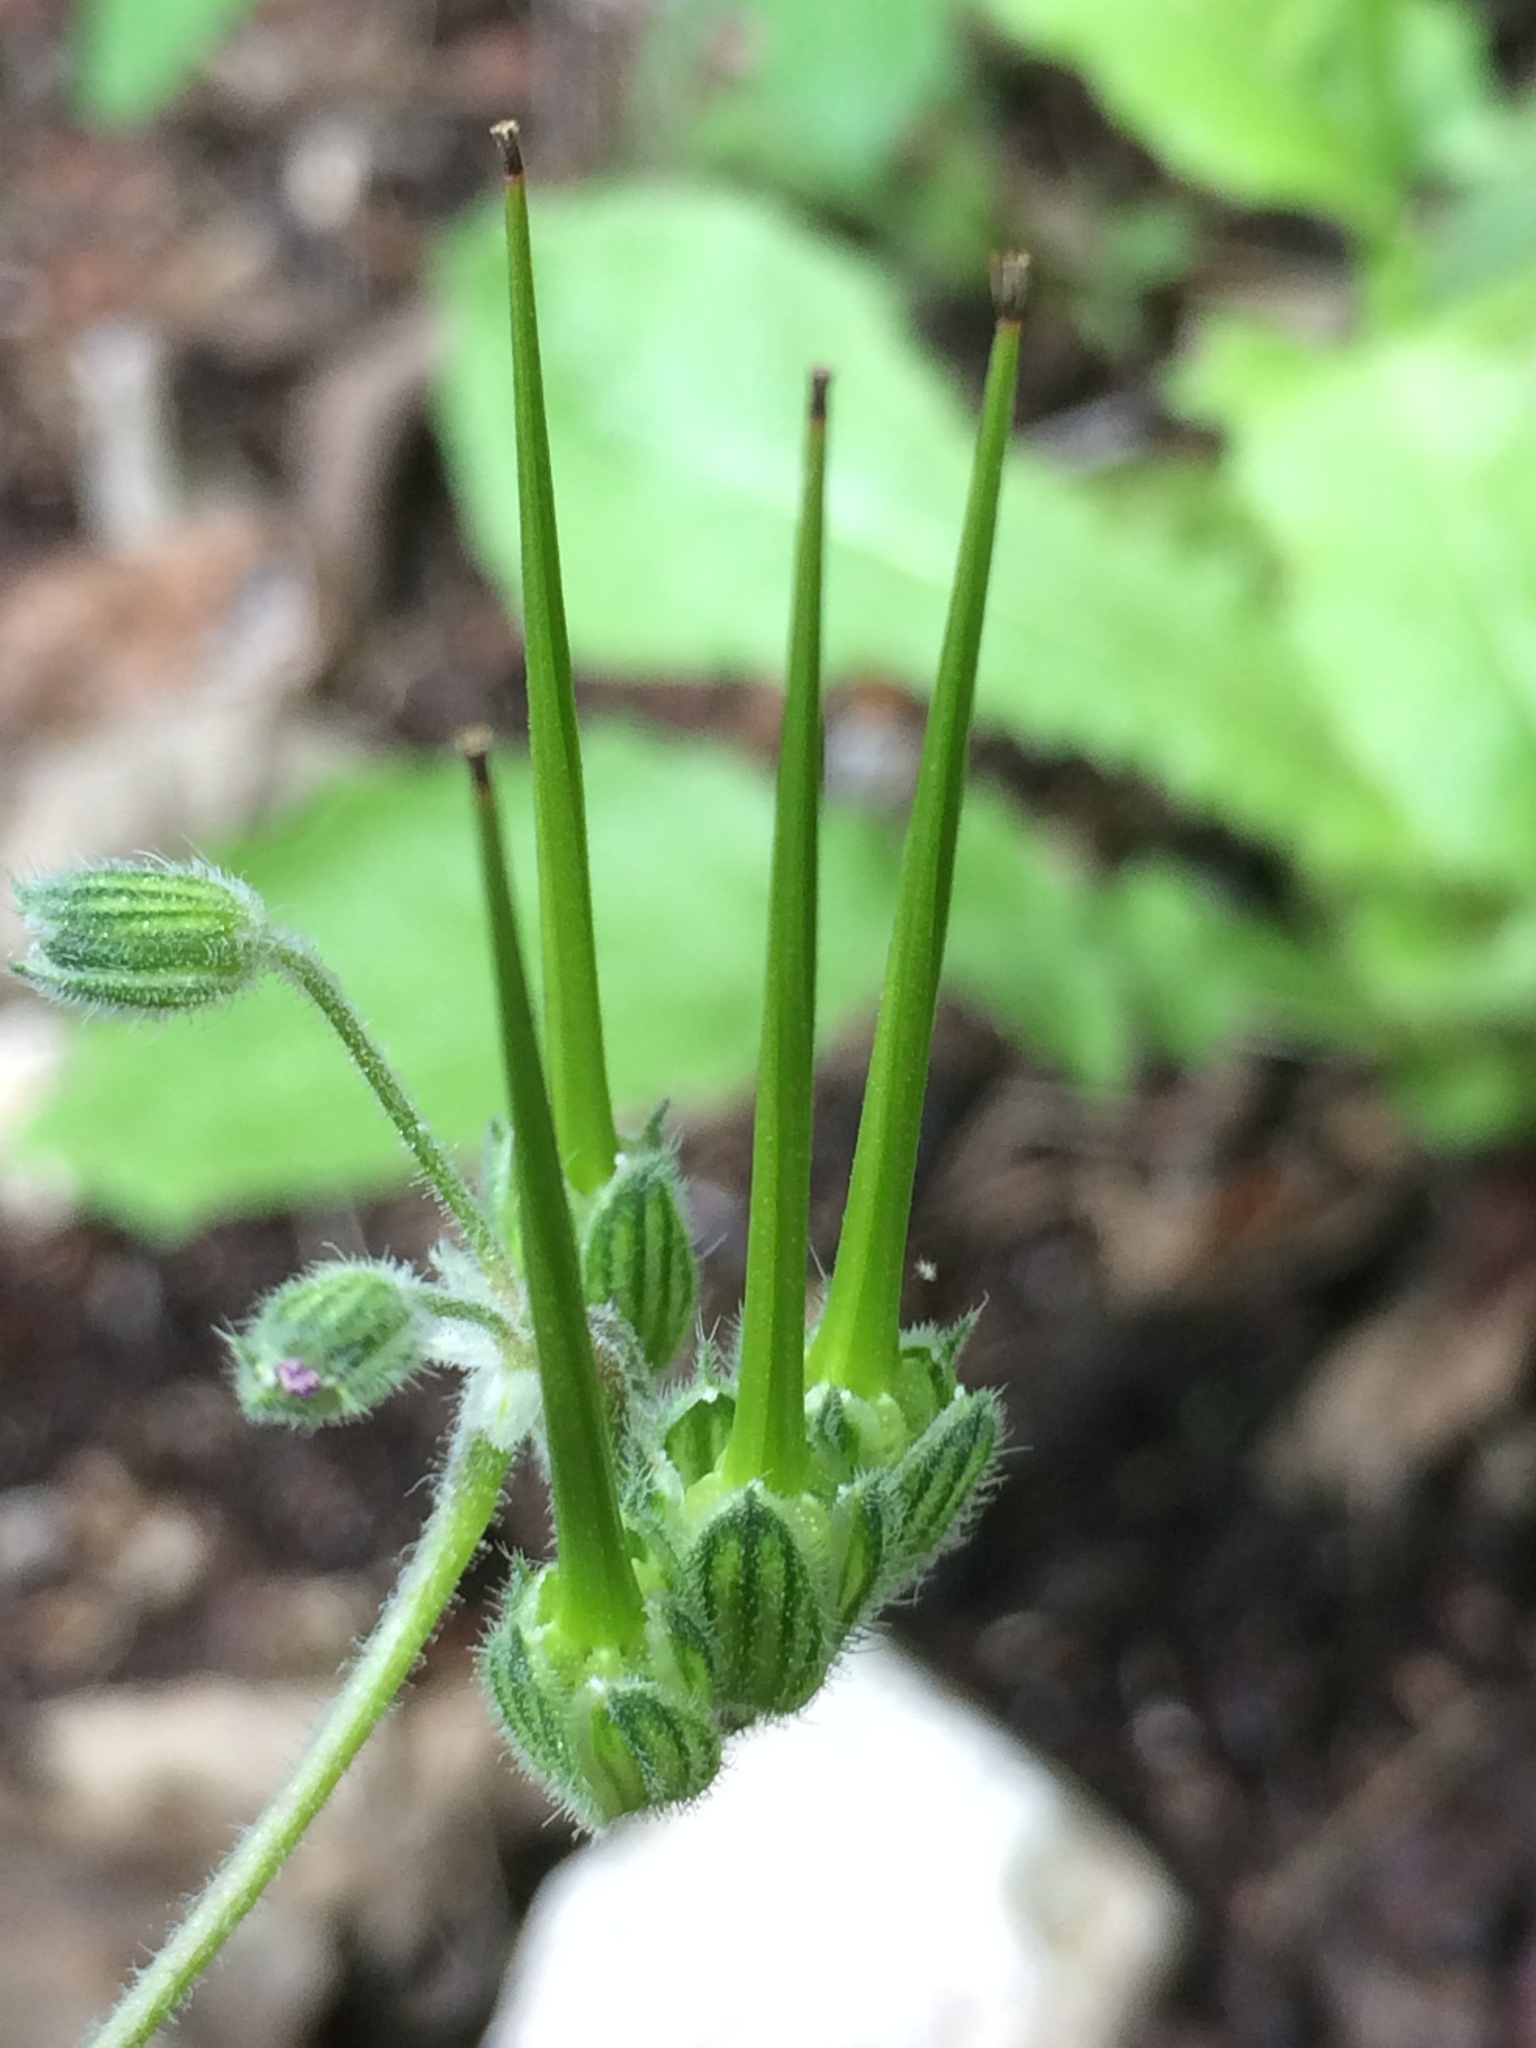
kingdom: Plantae
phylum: Tracheophyta
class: Magnoliopsida
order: Geraniales
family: Geraniaceae
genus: Erodium
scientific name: Erodium malacoides
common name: Soft stork's-bill
